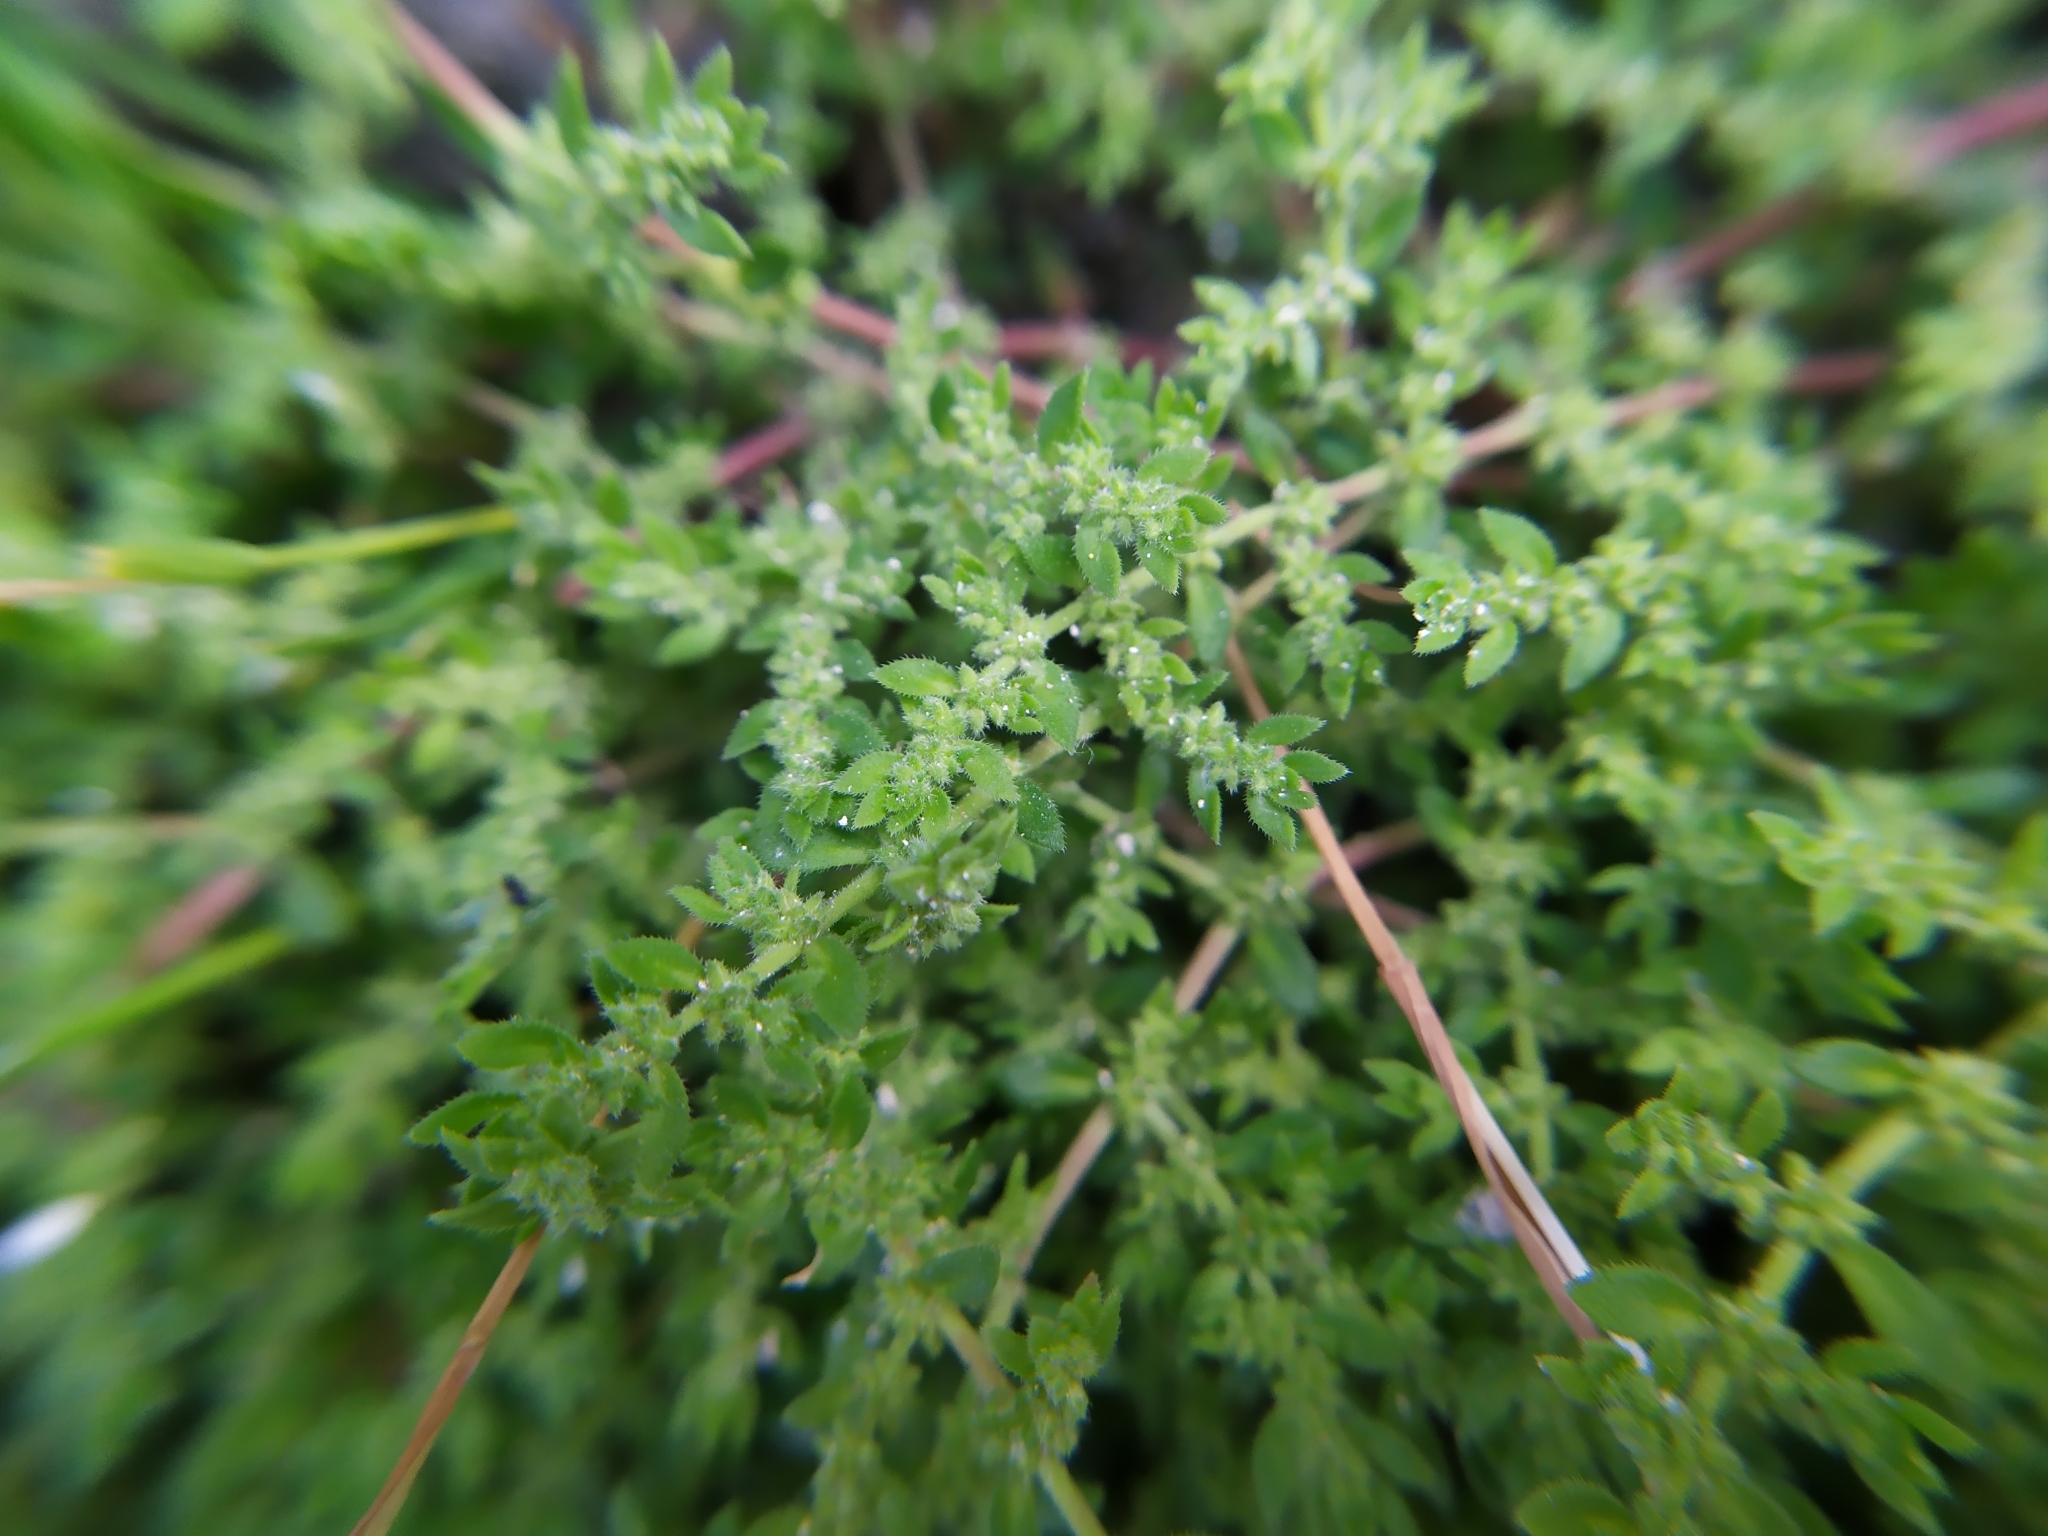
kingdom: Plantae
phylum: Tracheophyta
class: Magnoliopsida
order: Caryophyllales
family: Caryophyllaceae
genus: Herniaria
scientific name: Herniaria hirsuta
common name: Hairy rupturewort
